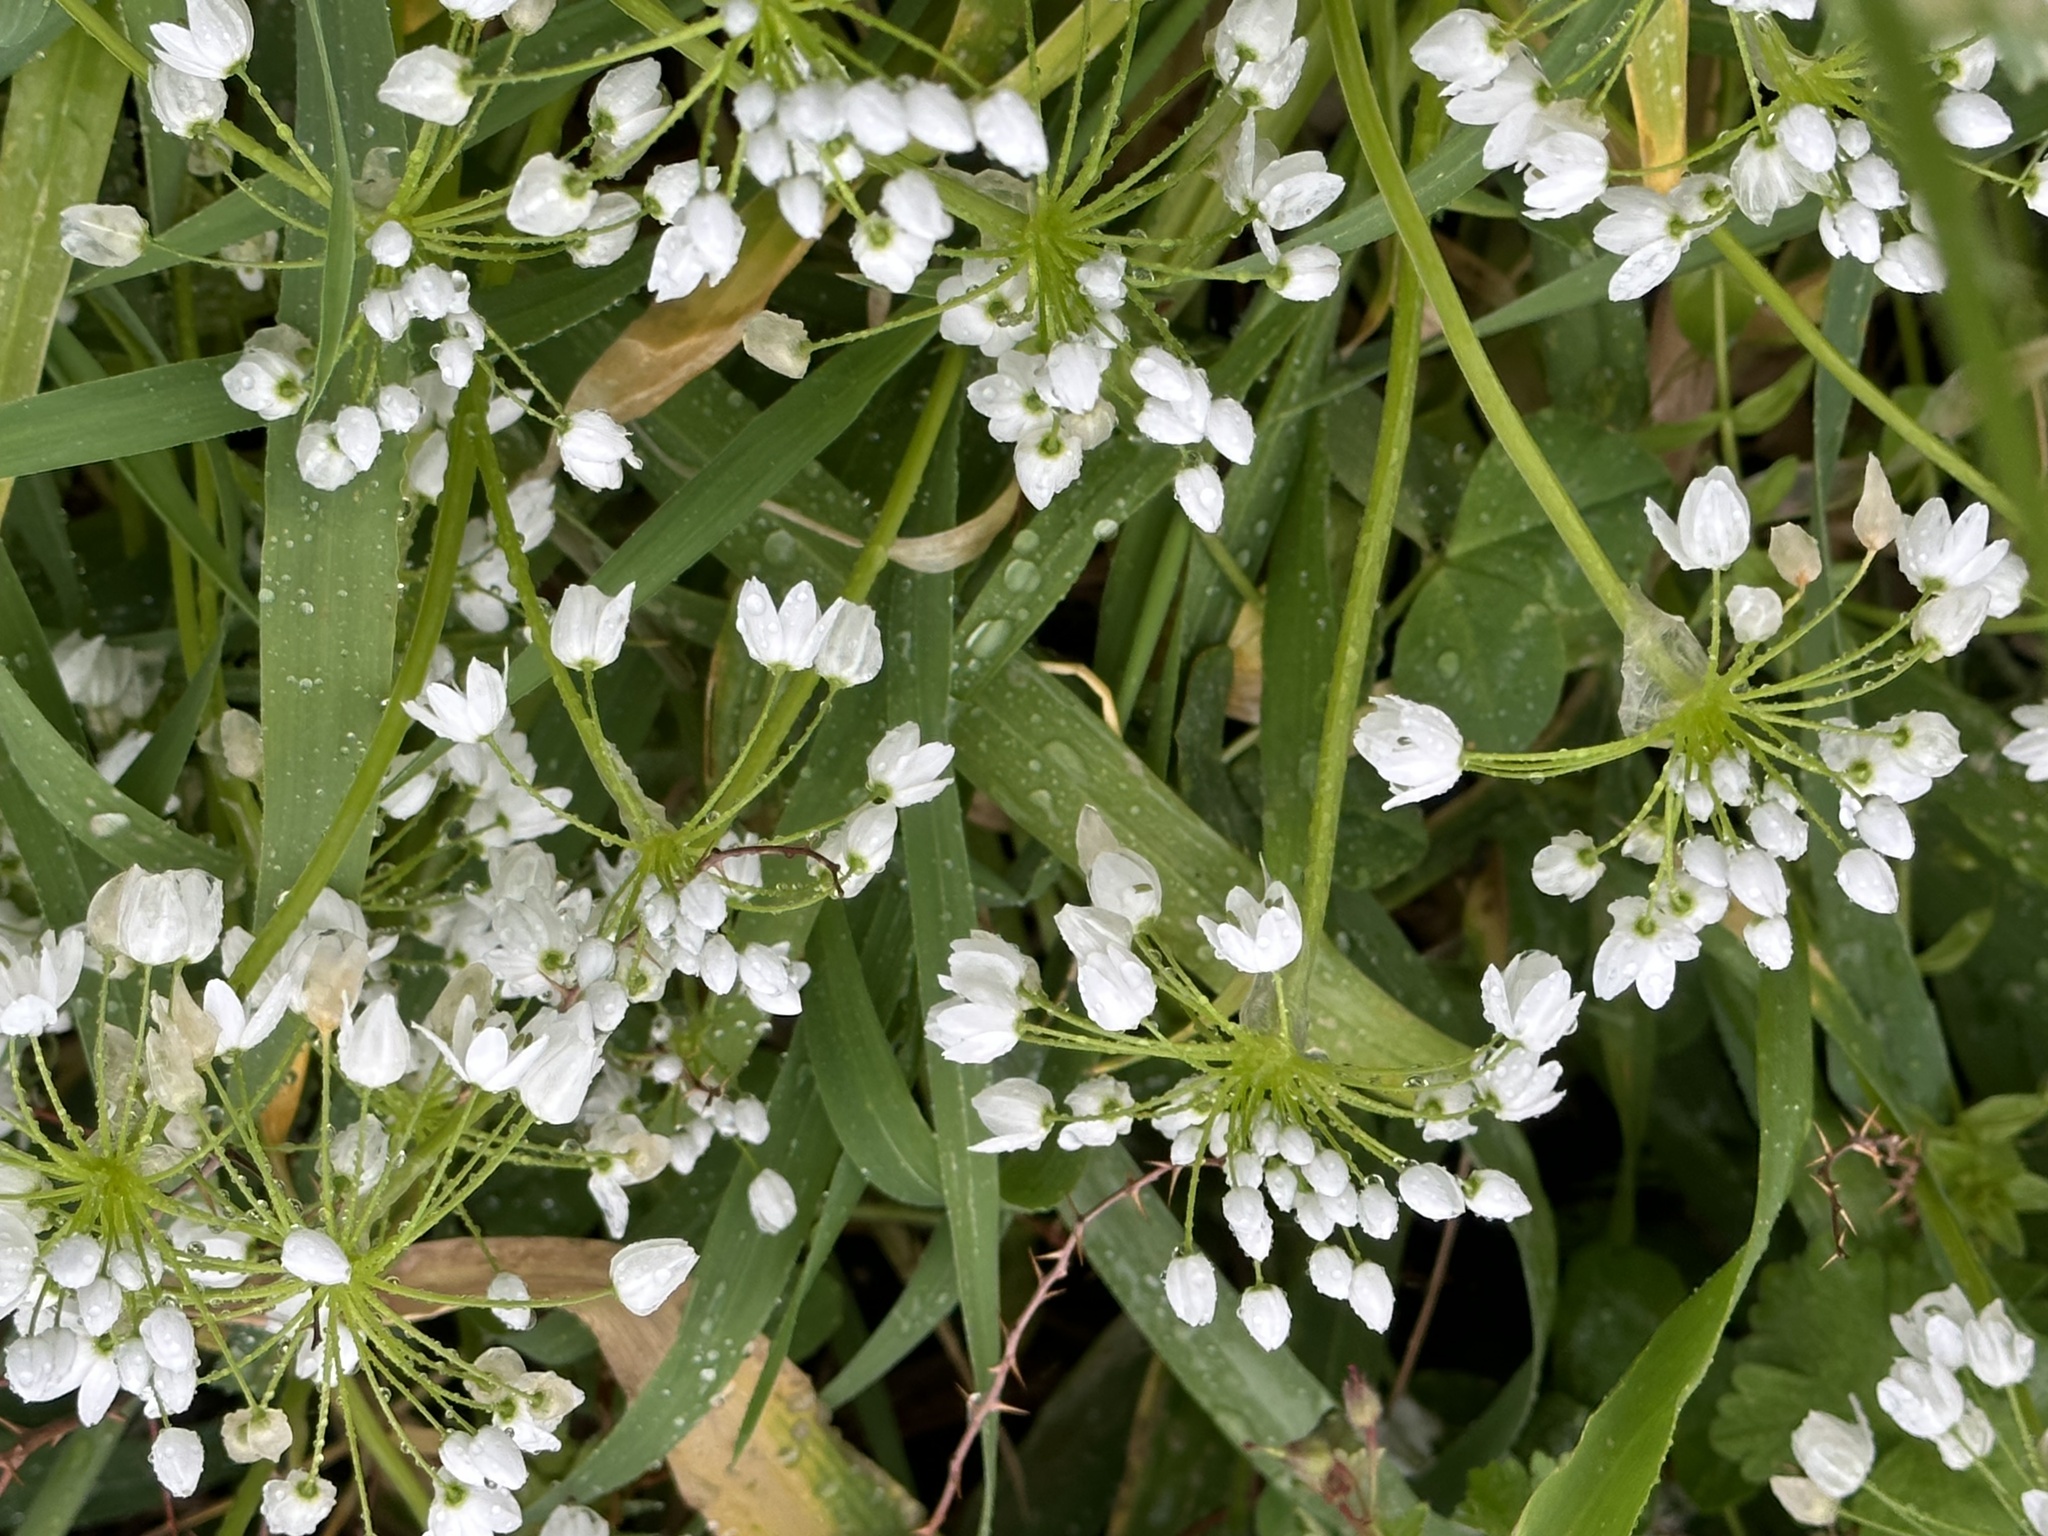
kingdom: Plantae
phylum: Tracheophyta
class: Liliopsida
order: Asparagales
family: Amaryllidaceae
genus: Allium
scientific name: Allium neapolitanum
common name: Neapolitan garlic
